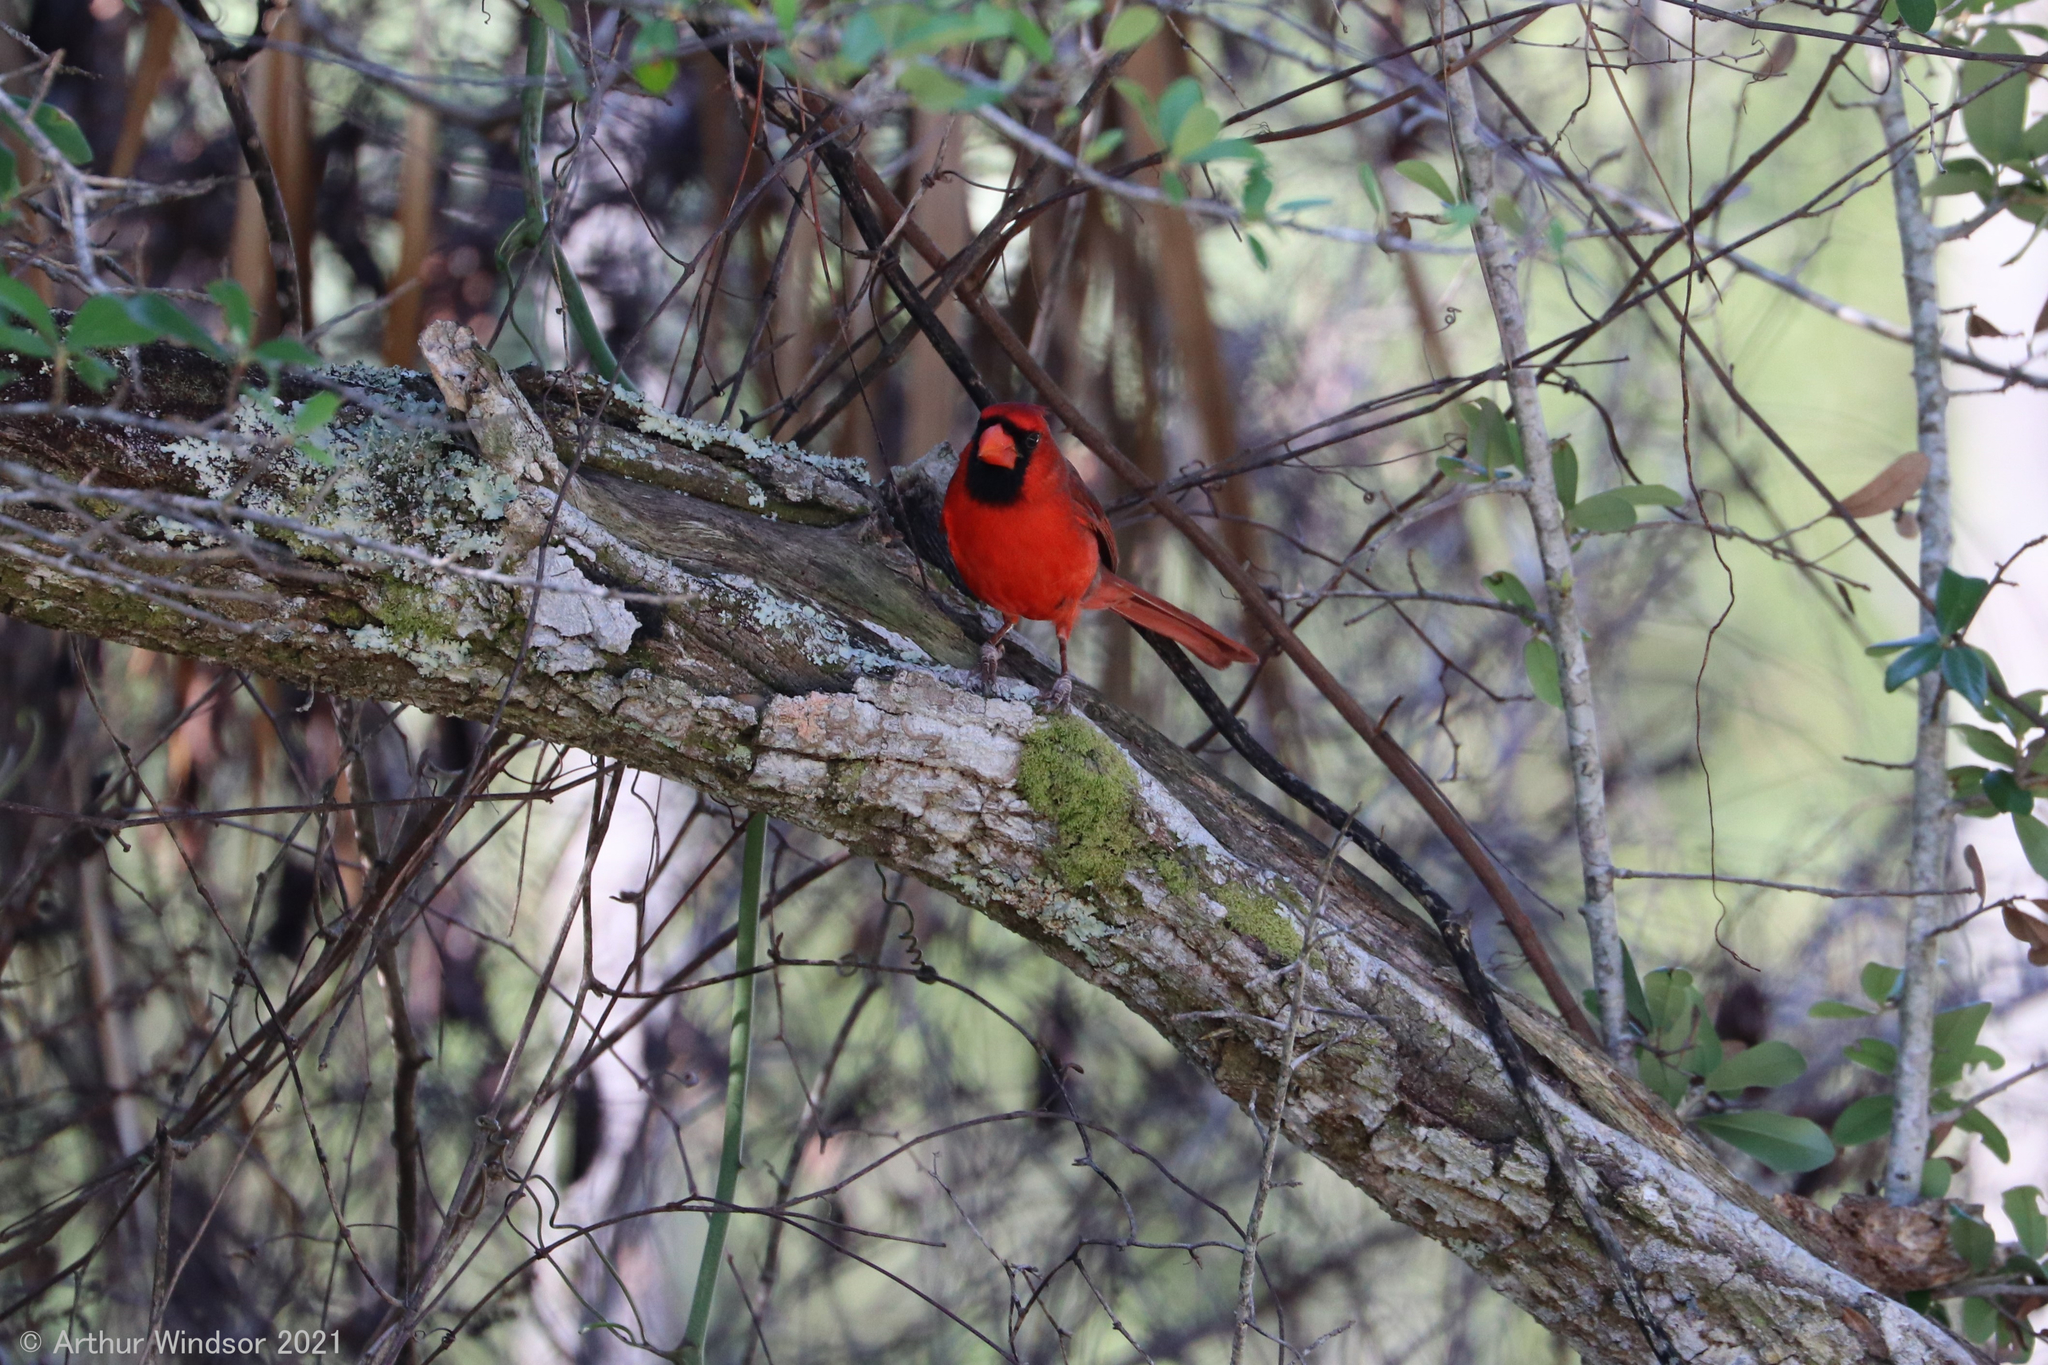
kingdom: Animalia
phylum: Chordata
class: Aves
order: Passeriformes
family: Cardinalidae
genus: Cardinalis
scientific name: Cardinalis cardinalis
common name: Northern cardinal
